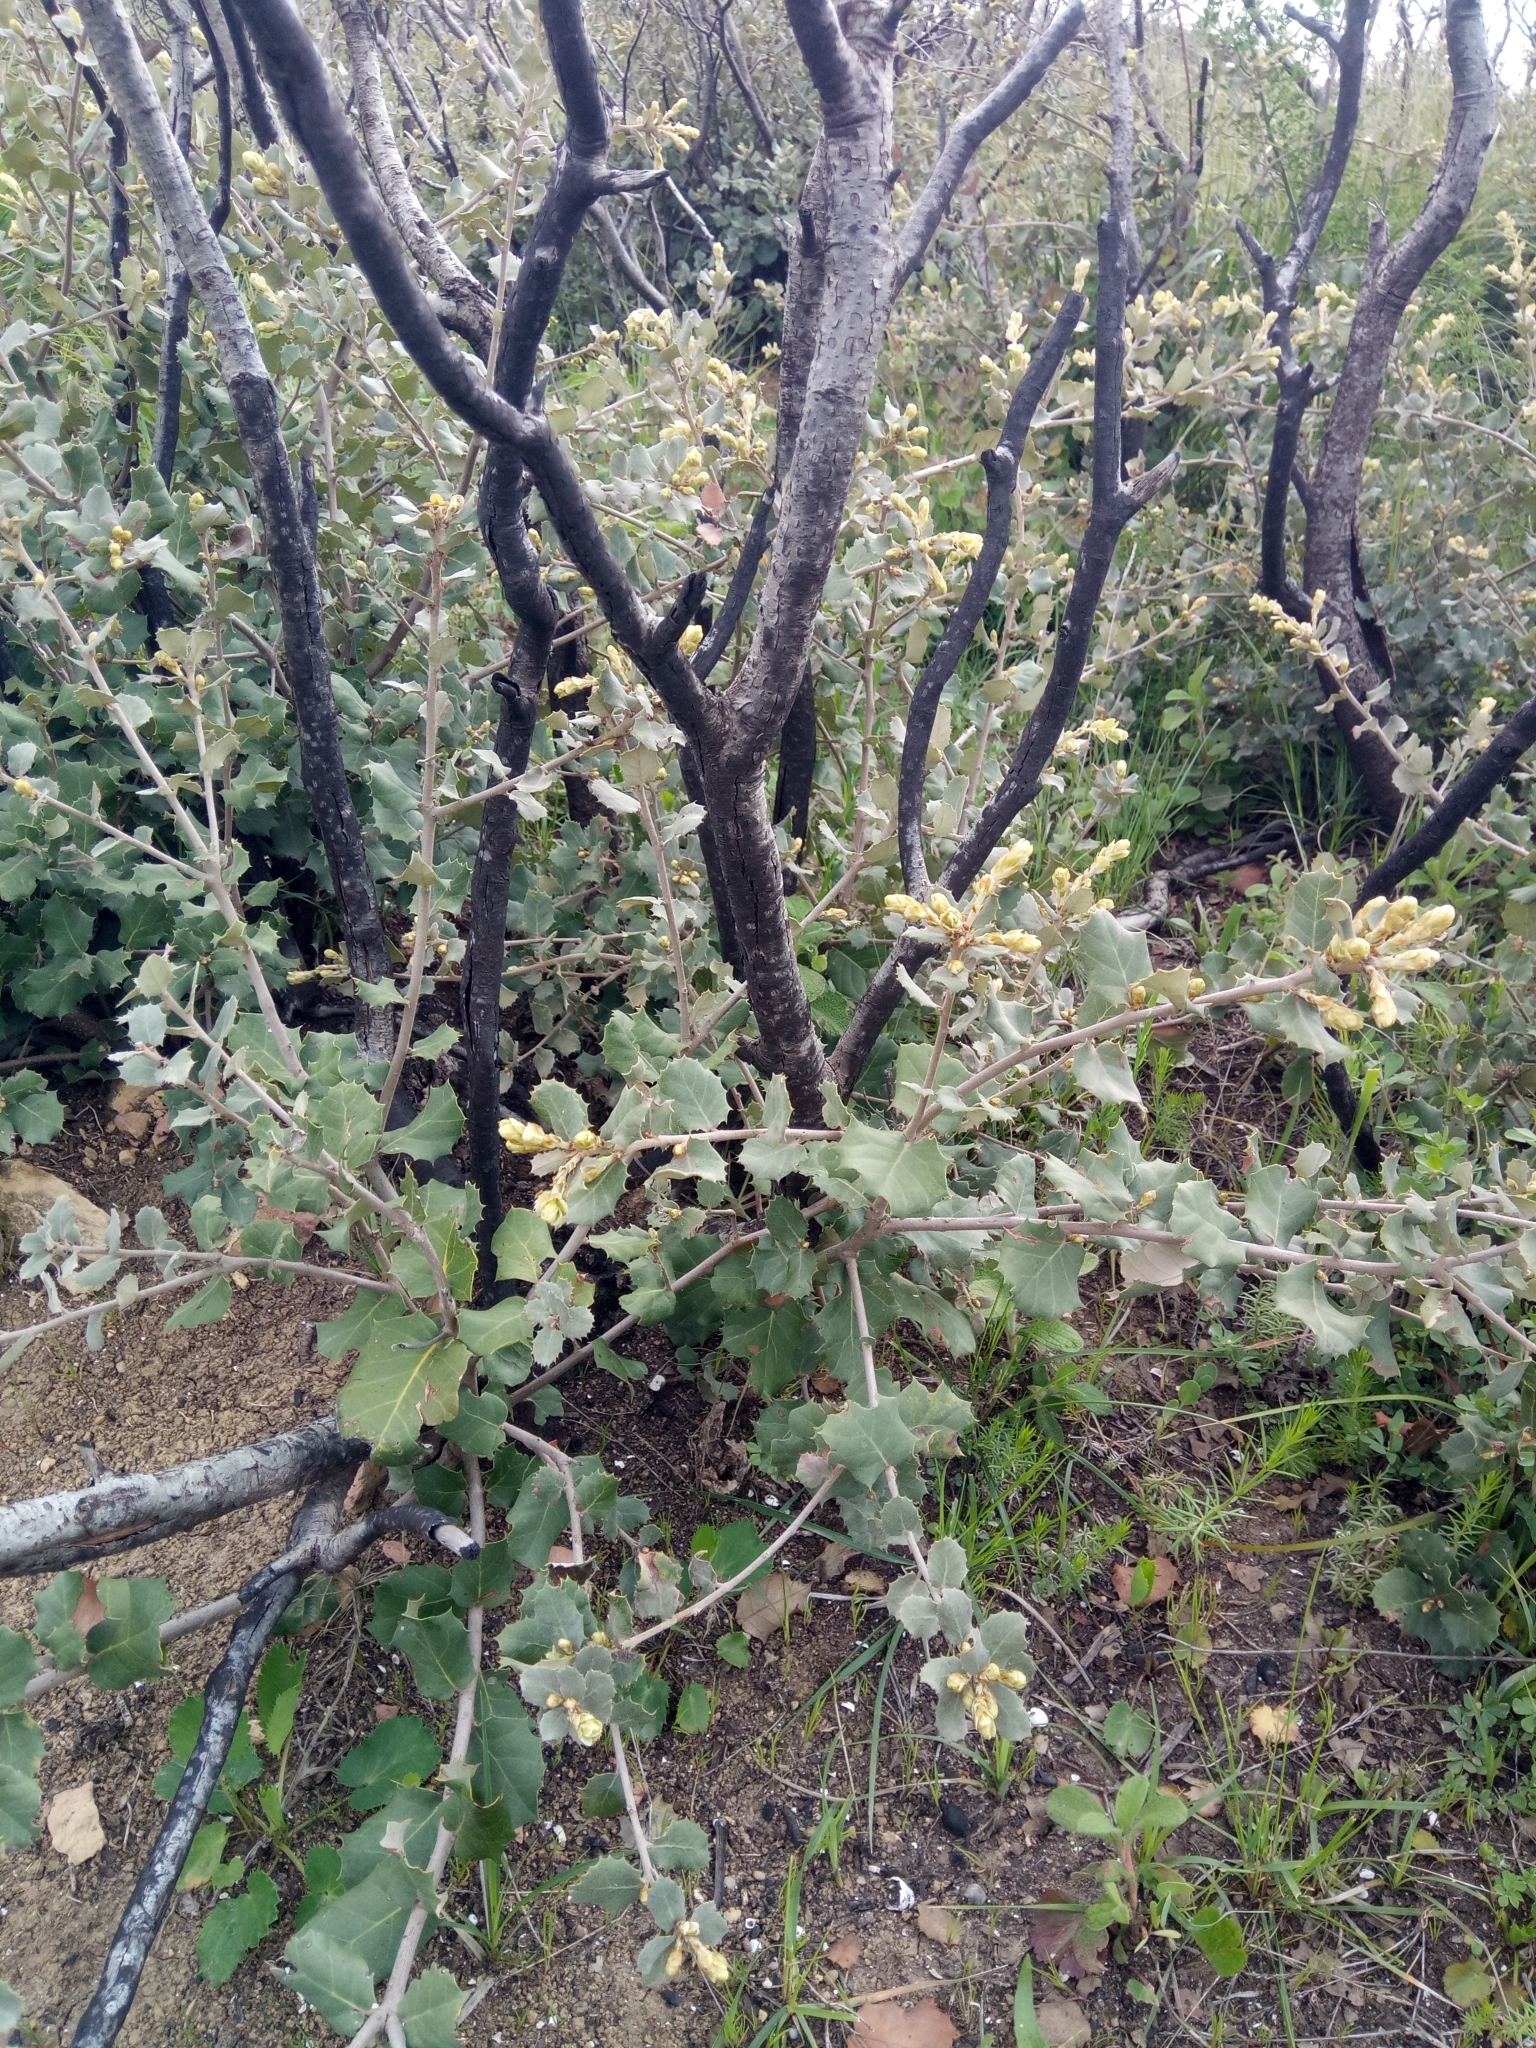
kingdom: Plantae
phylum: Tracheophyta
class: Magnoliopsida
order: Fagales
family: Fagaceae
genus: Quercus
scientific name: Quercus rotundifolia
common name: Holm oak
